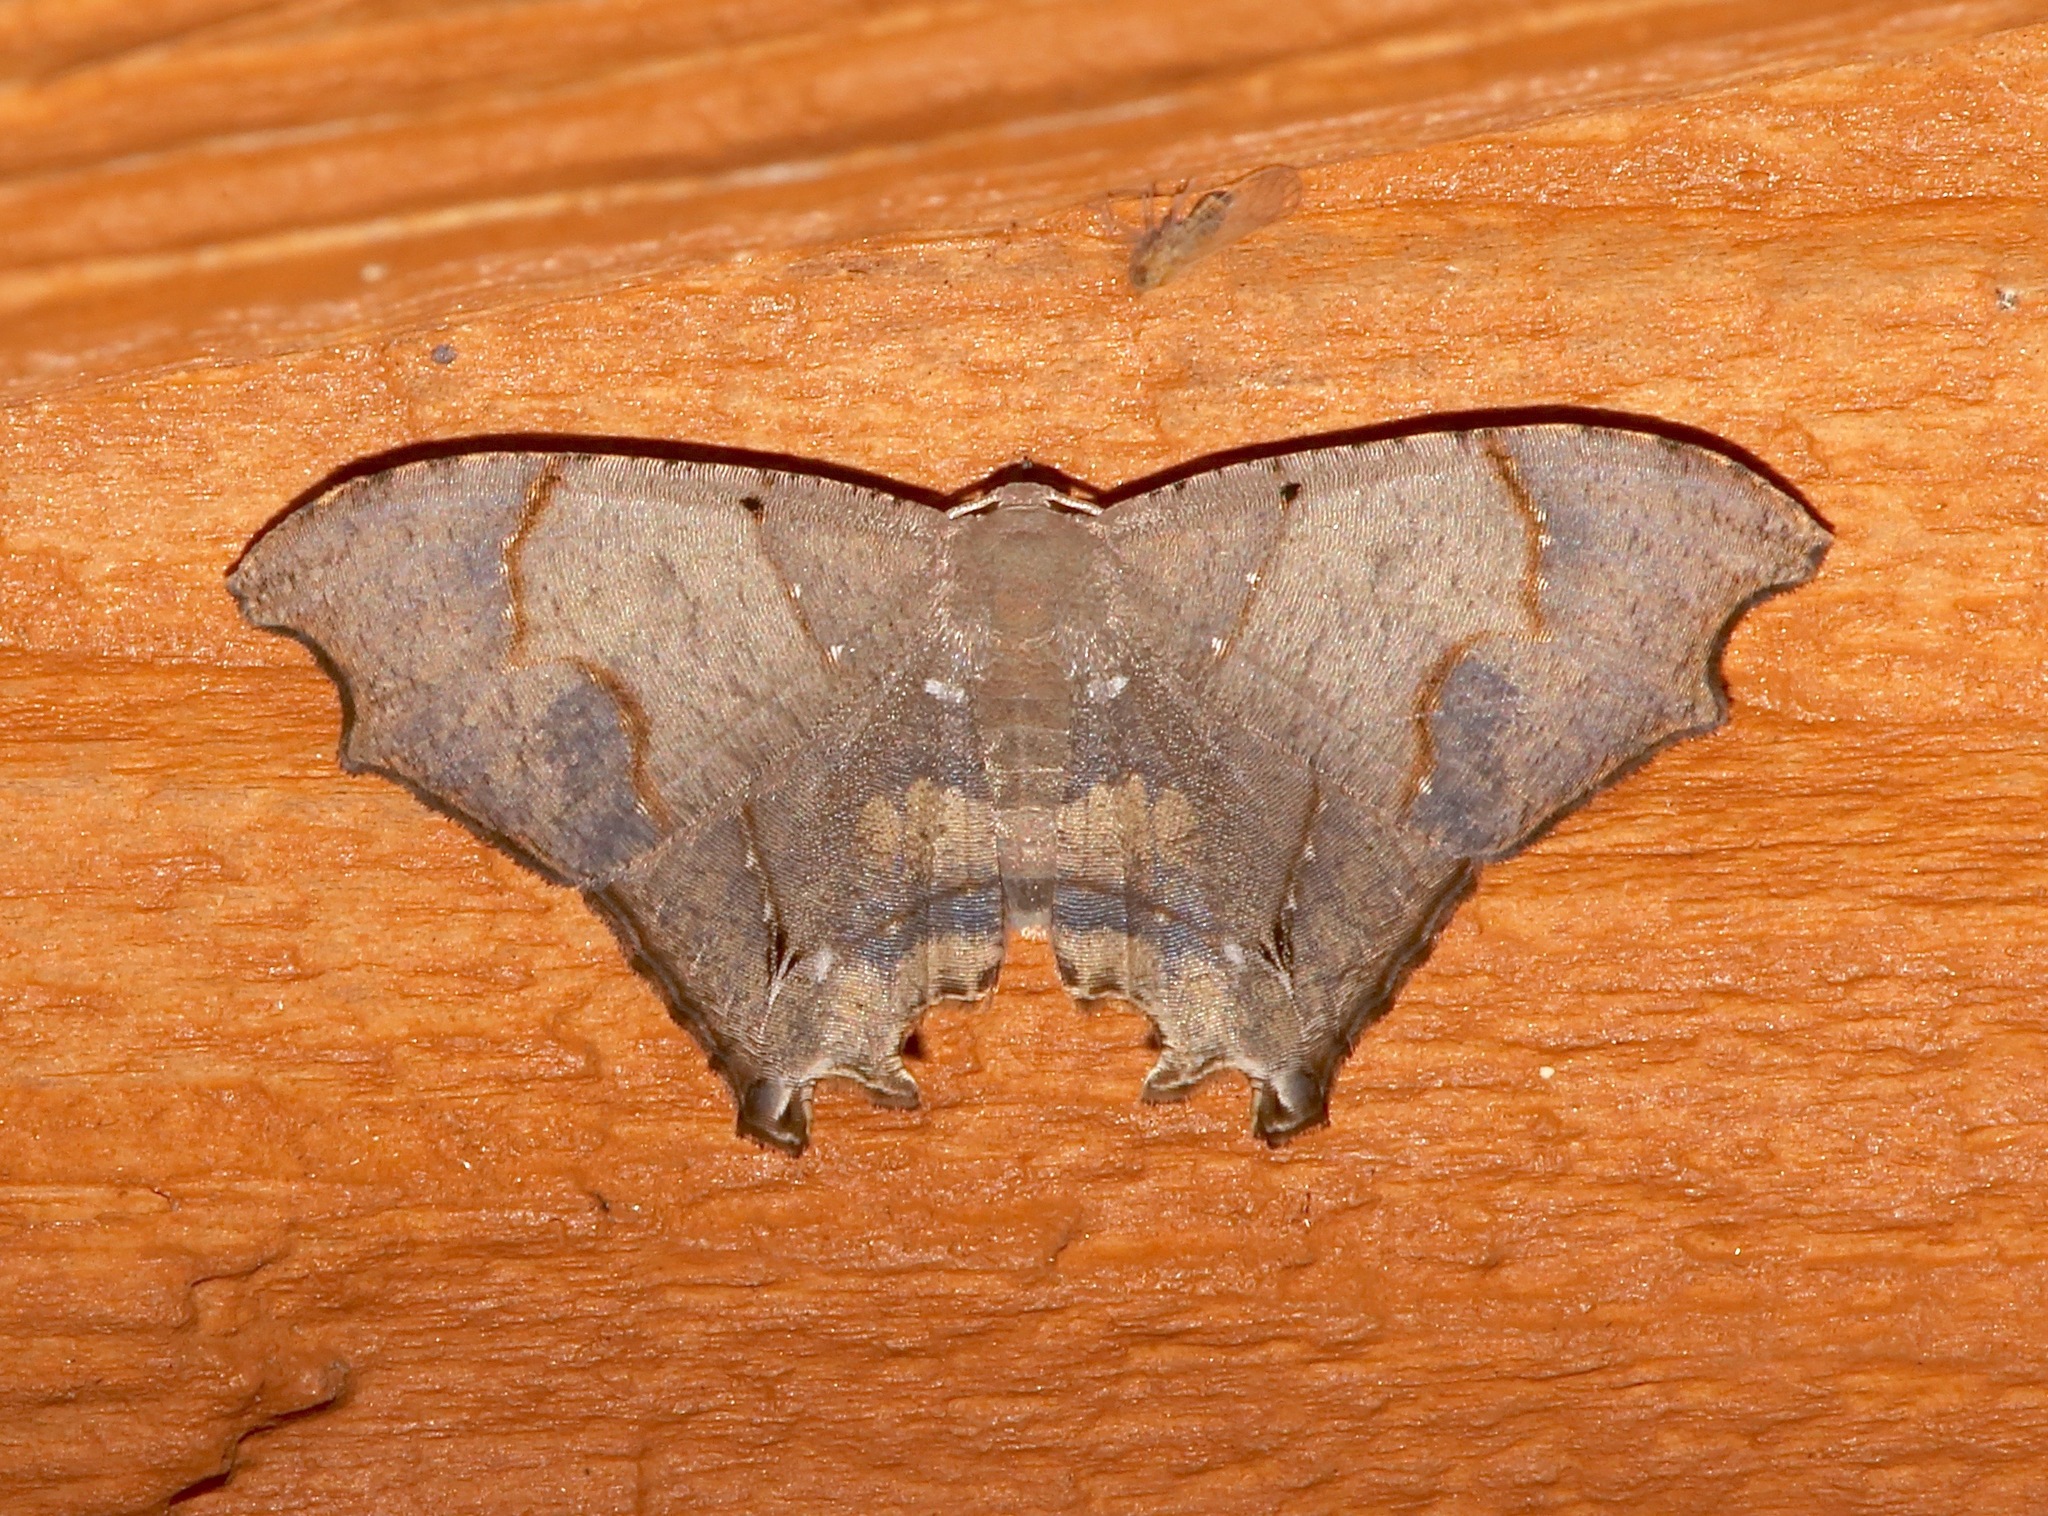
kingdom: Animalia
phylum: Arthropoda
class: Insecta
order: Lepidoptera
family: Uraniidae
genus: Trotorhombia
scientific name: Trotorhombia metachromata
